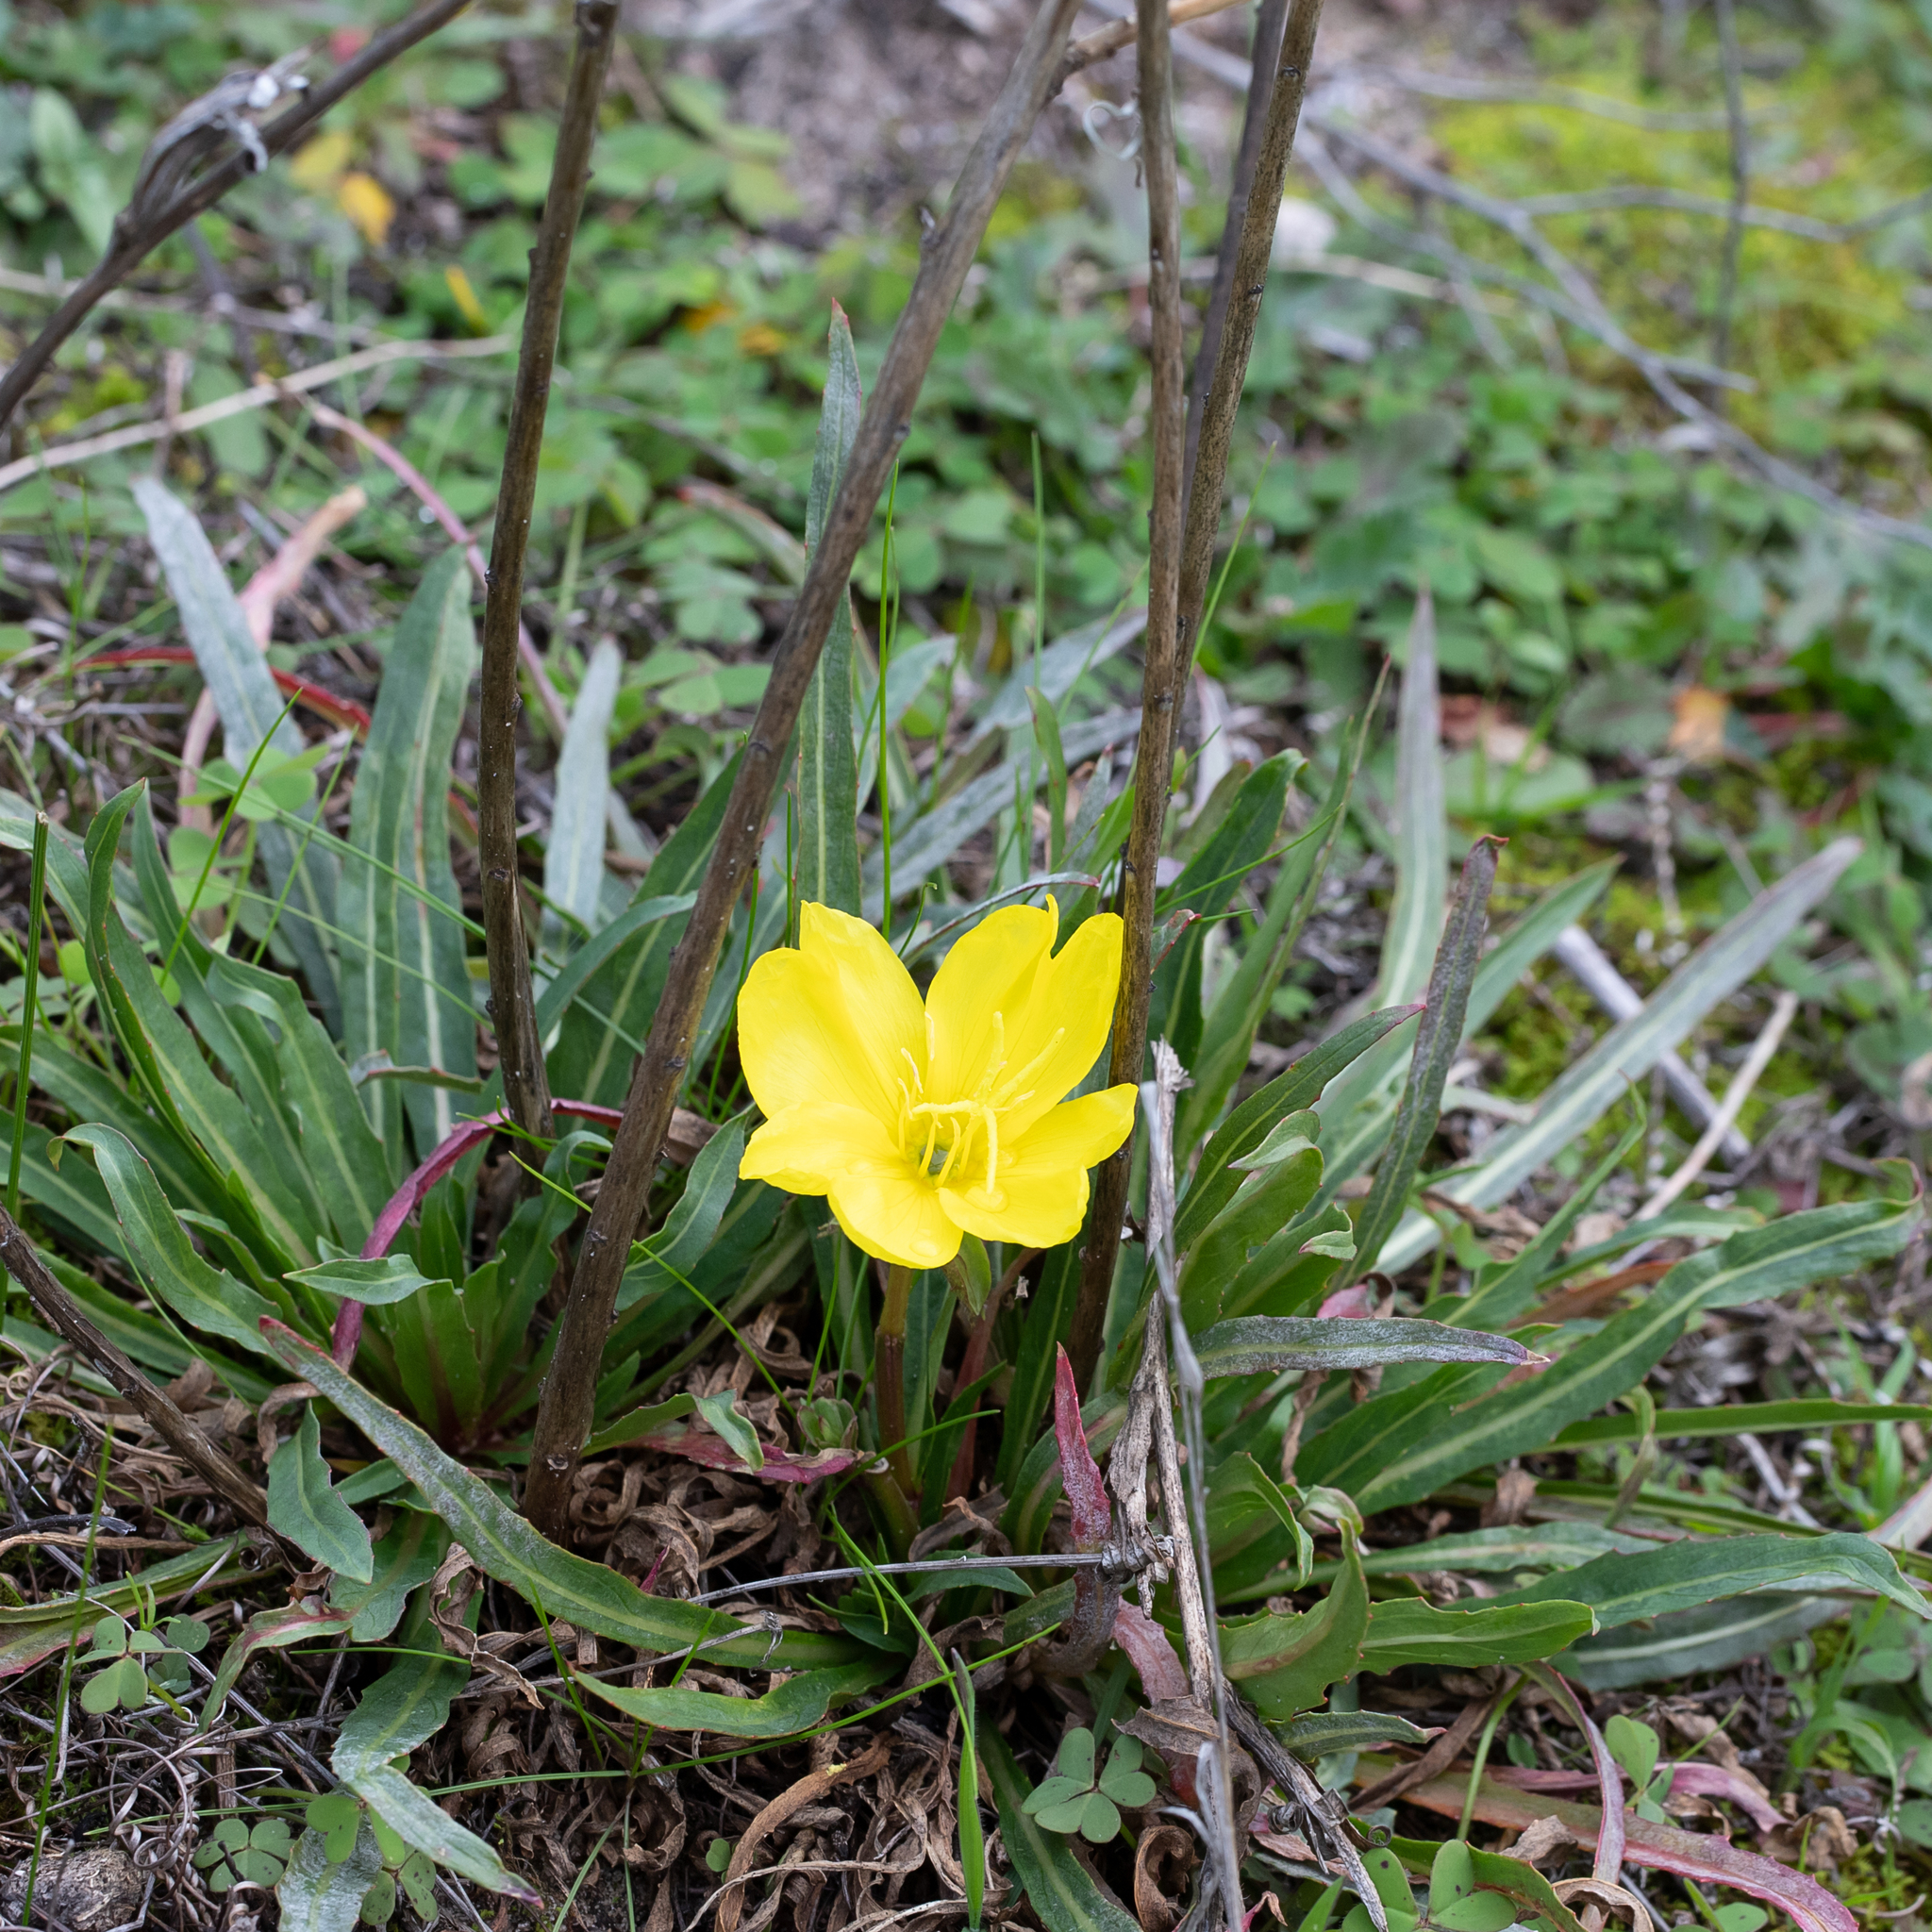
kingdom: Plantae
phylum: Tracheophyta
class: Magnoliopsida
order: Myrtales
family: Onagraceae
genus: Oenothera
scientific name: Oenothera stricta
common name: Fragrant evening-primrose
